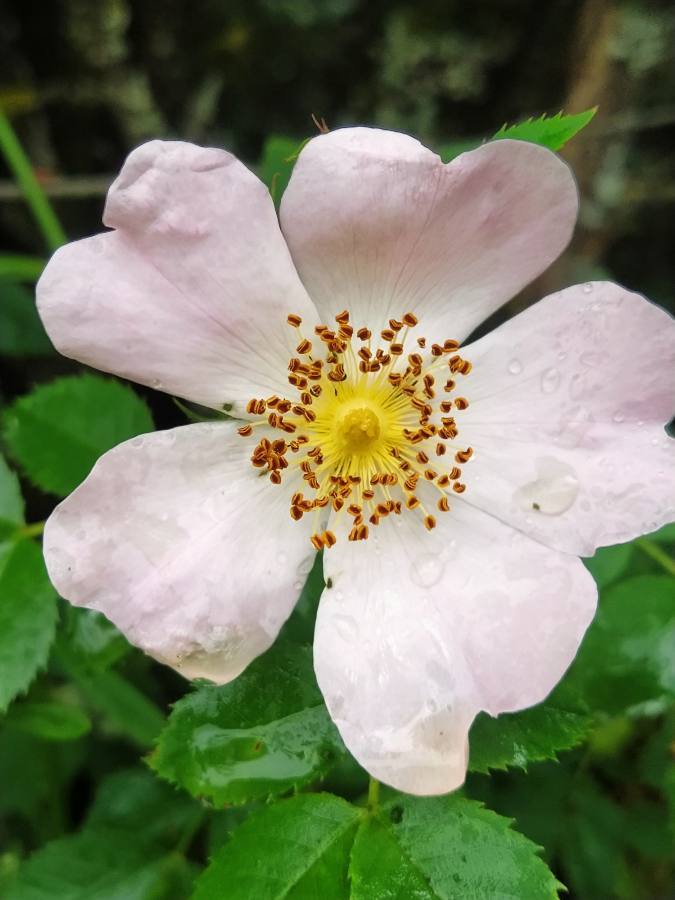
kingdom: Plantae
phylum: Tracheophyta
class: Magnoliopsida
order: Rosales
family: Rosaceae
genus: Rosa
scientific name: Rosa canina
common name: Dog rose
